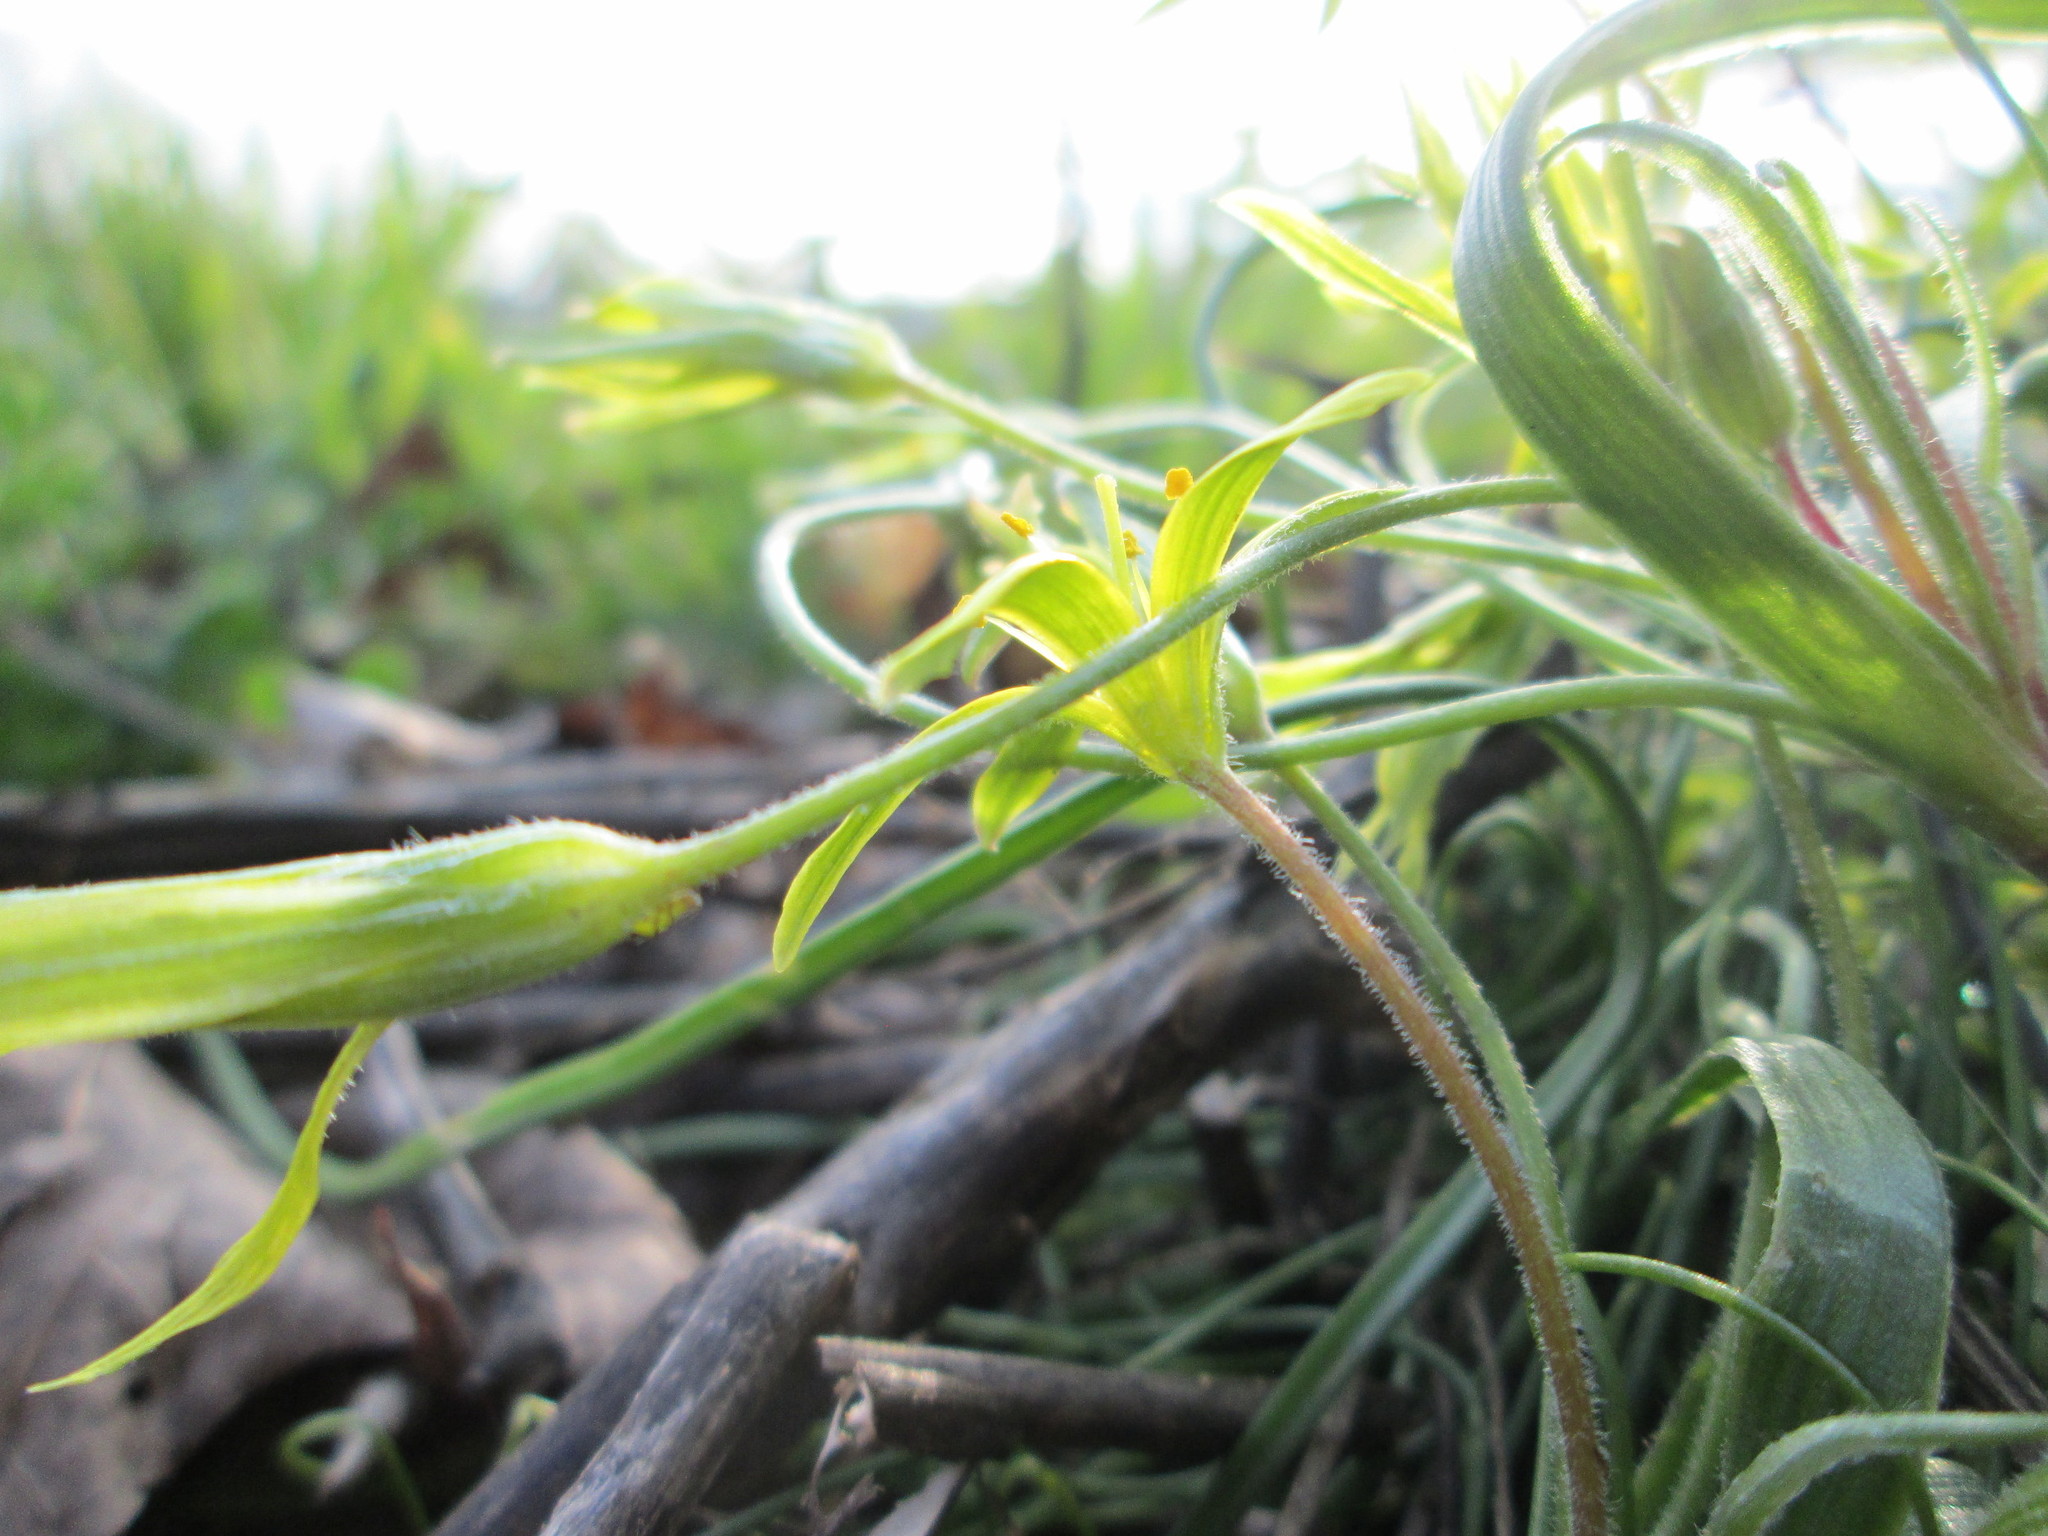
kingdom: Plantae
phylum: Tracheophyta
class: Liliopsida
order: Liliales
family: Liliaceae
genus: Gagea
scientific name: Gagea villosa
